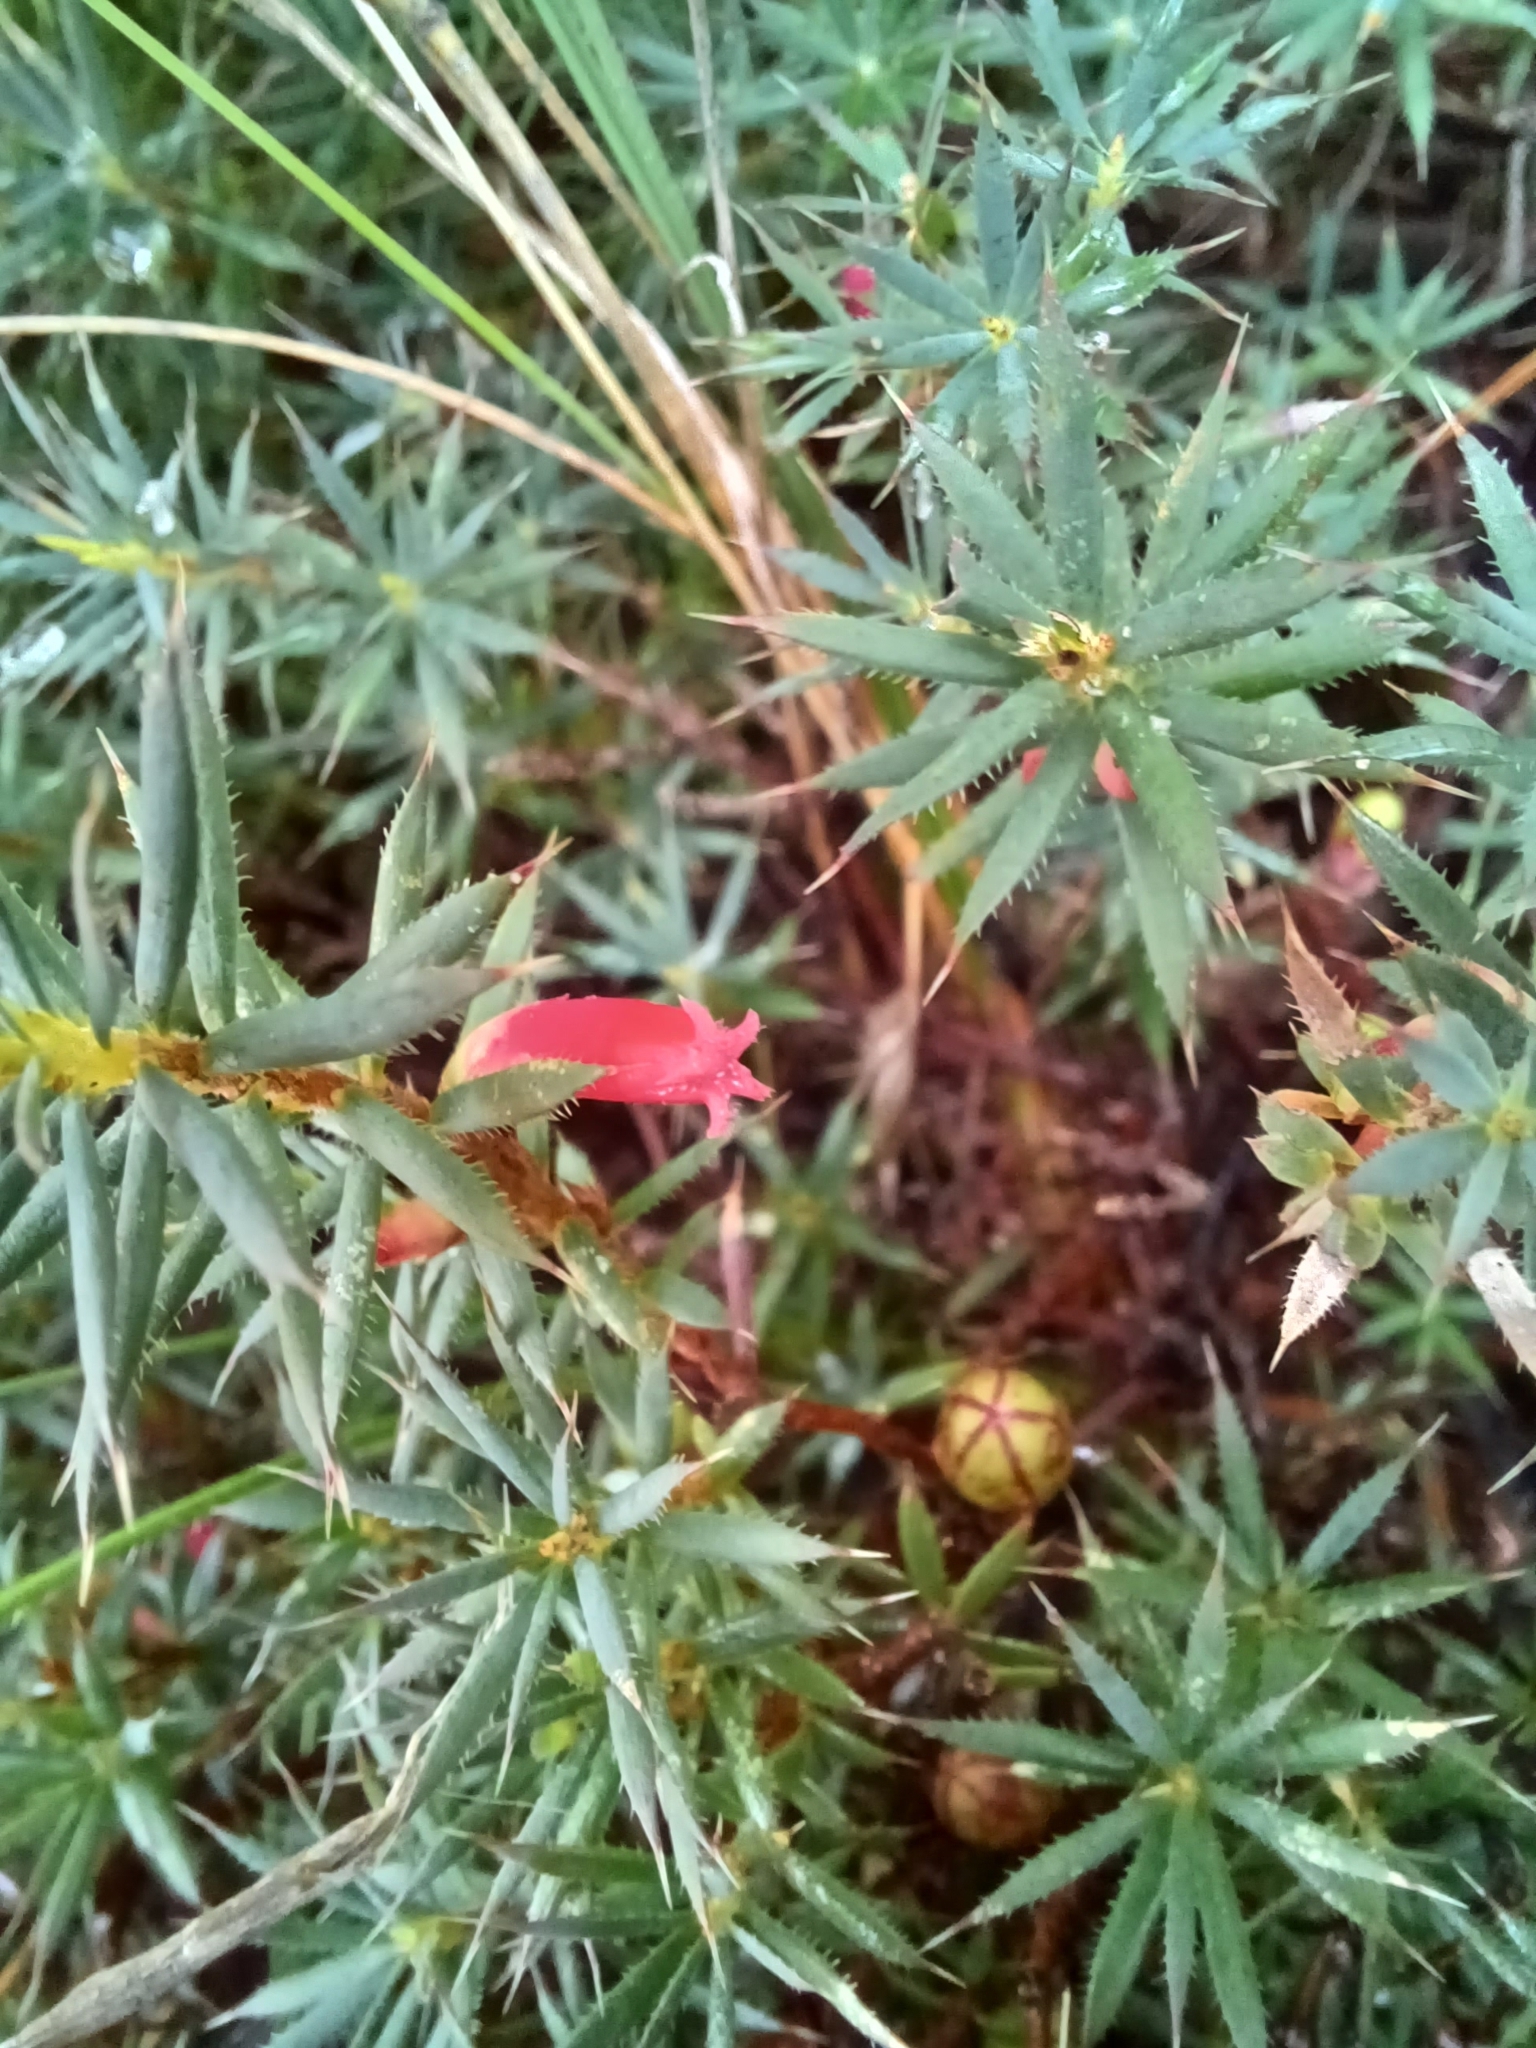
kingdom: Plantae
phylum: Tracheophyta
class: Magnoliopsida
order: Ericales
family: Ericaceae
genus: Styphelia
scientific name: Styphelia humifusa
